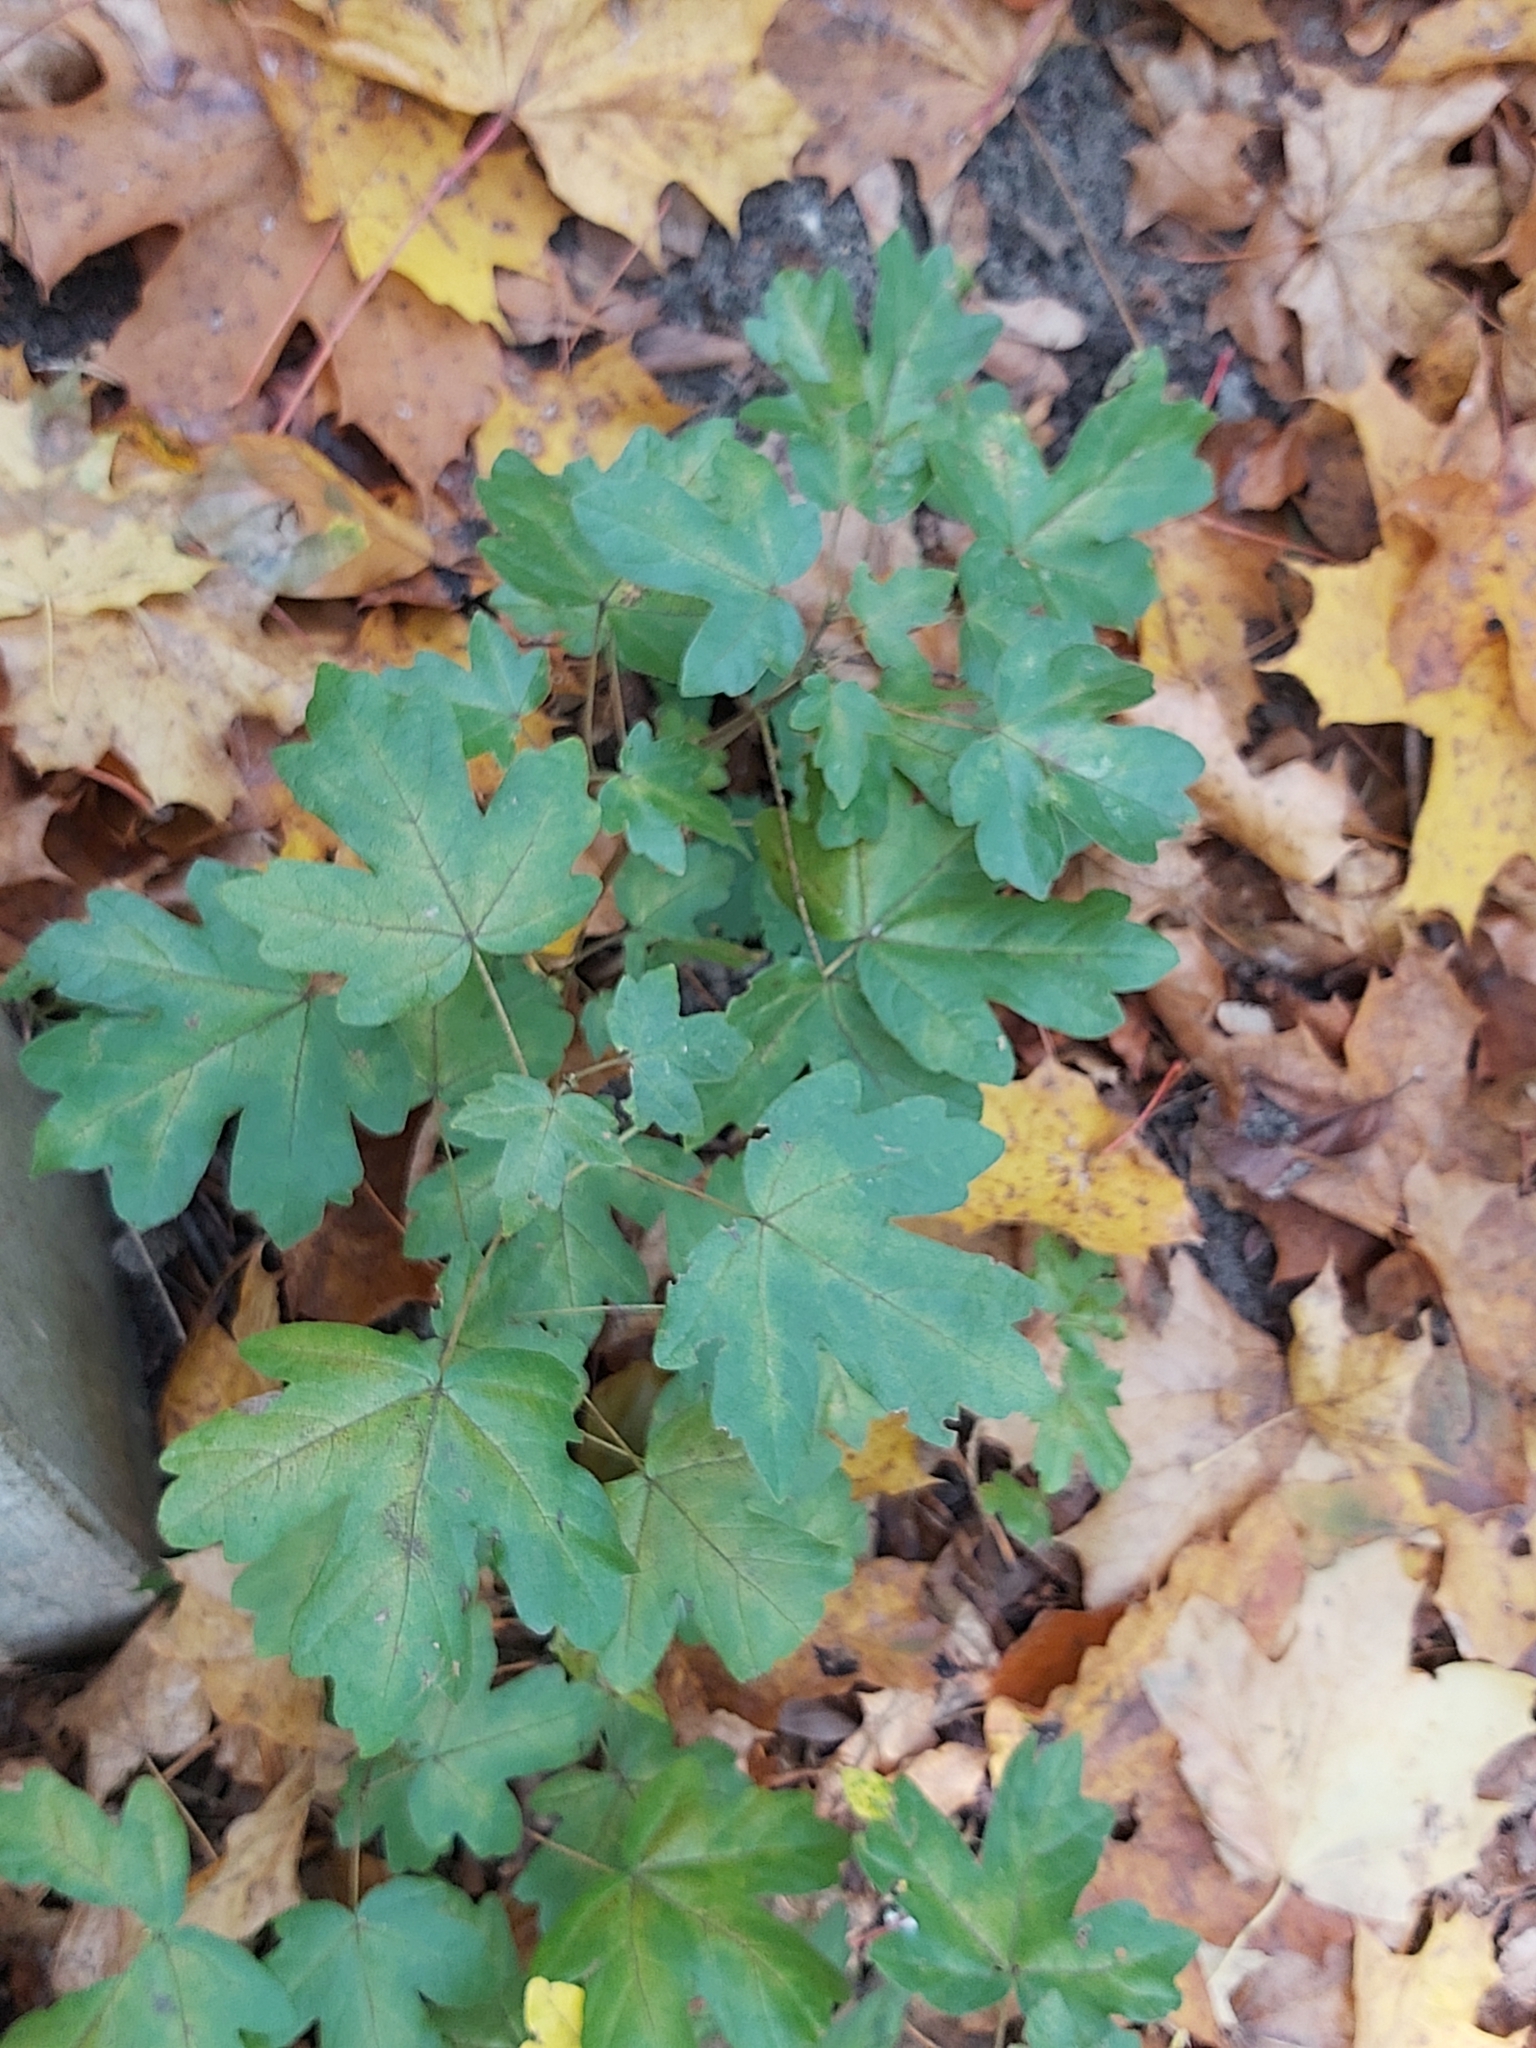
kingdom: Plantae
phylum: Tracheophyta
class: Magnoliopsida
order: Sapindales
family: Sapindaceae
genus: Acer
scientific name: Acer campestre
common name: Field maple
